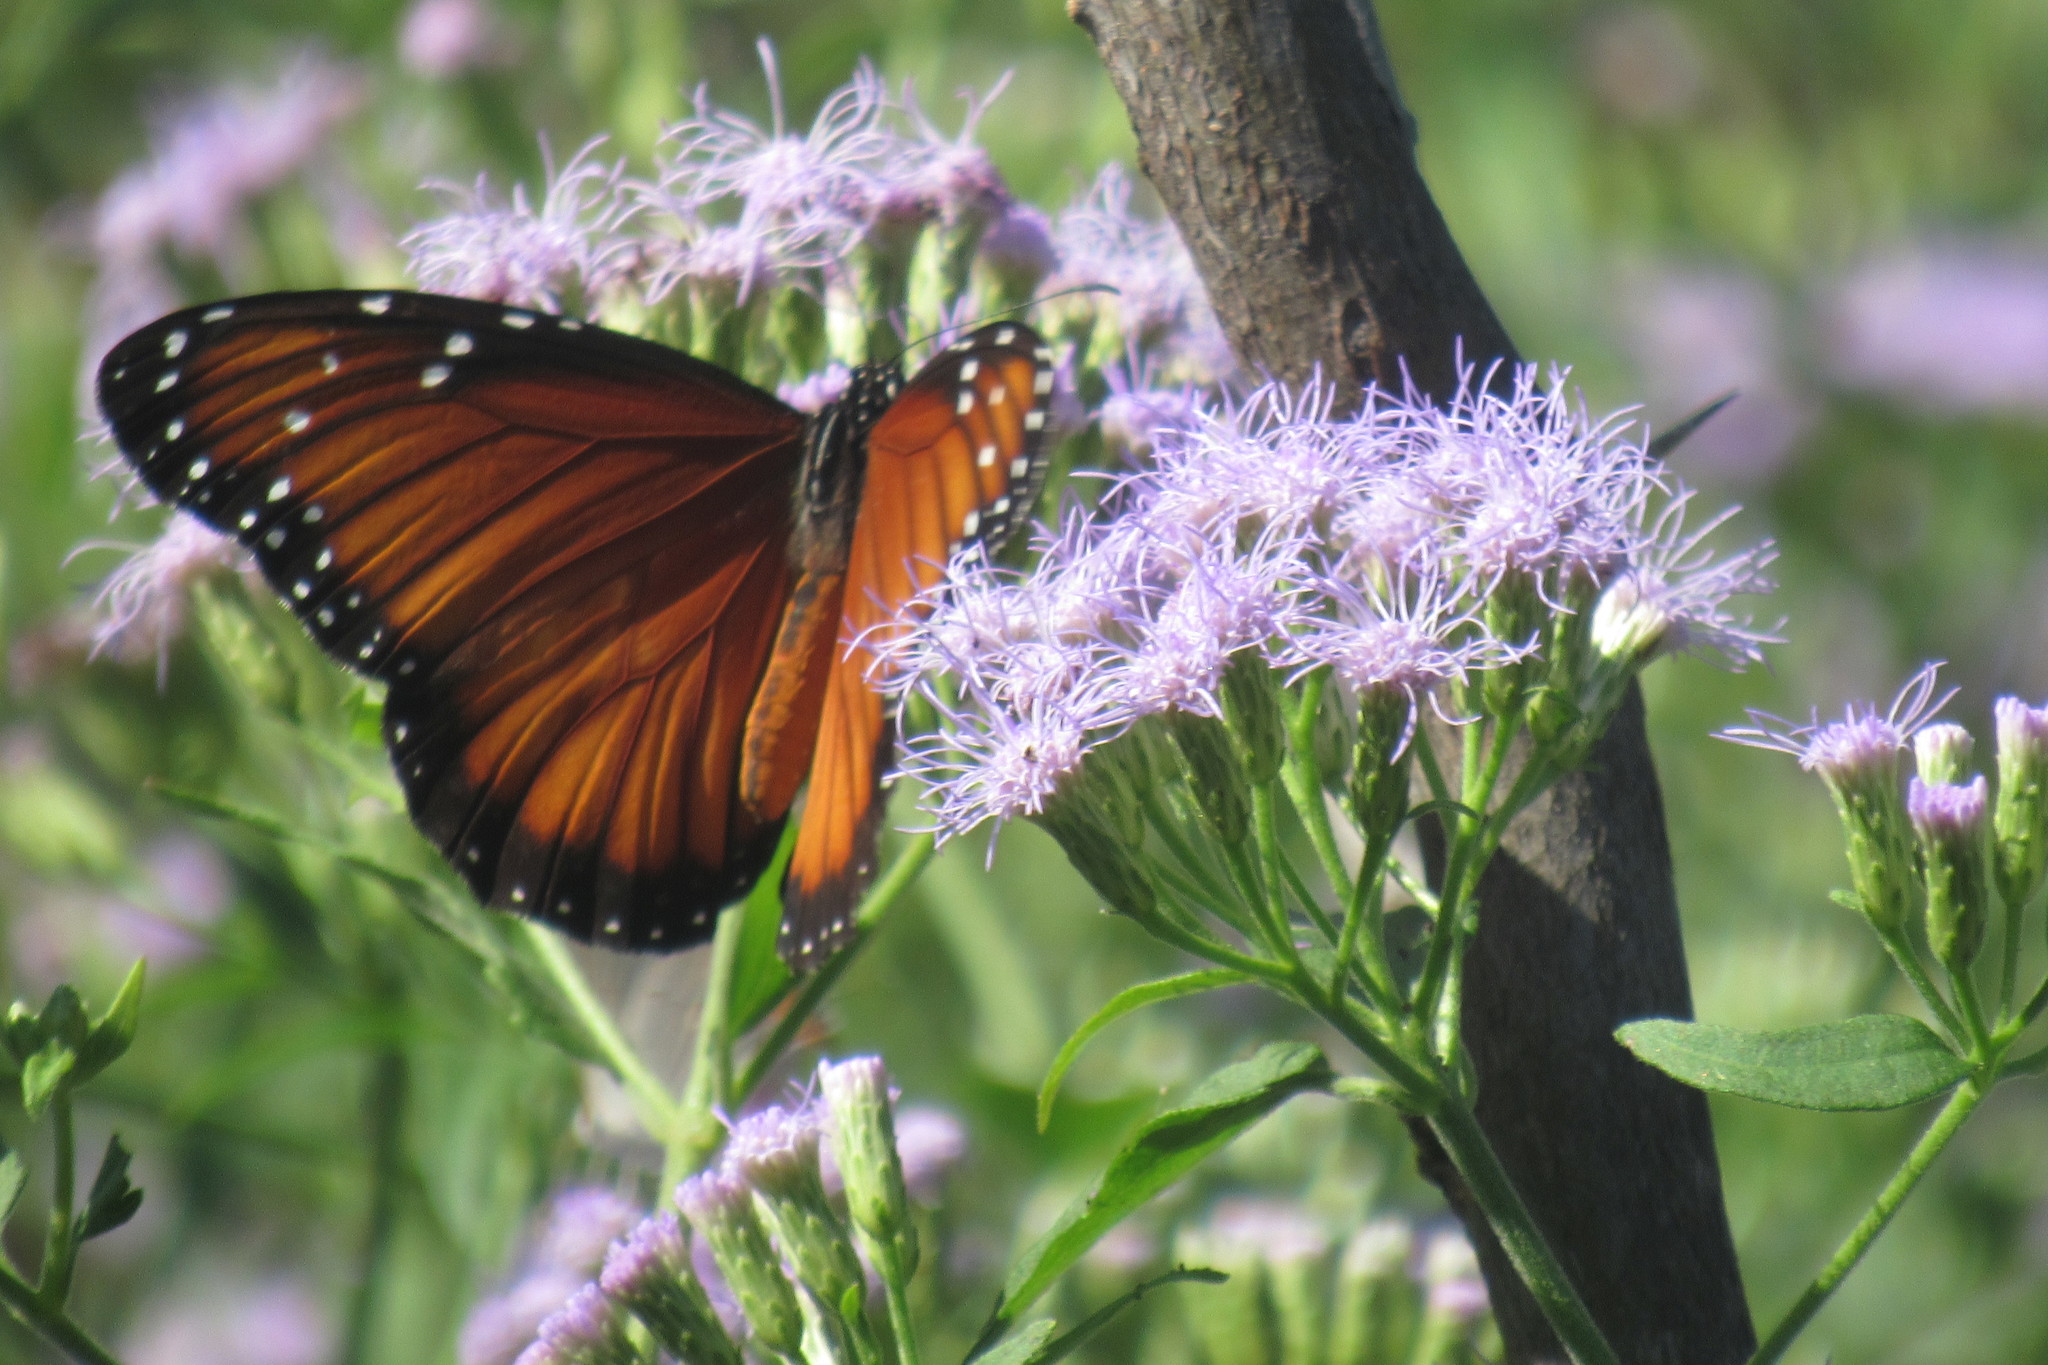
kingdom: Animalia
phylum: Arthropoda
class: Insecta
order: Lepidoptera
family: Nymphalidae
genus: Danaus
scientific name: Danaus eresimus
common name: Soldier
